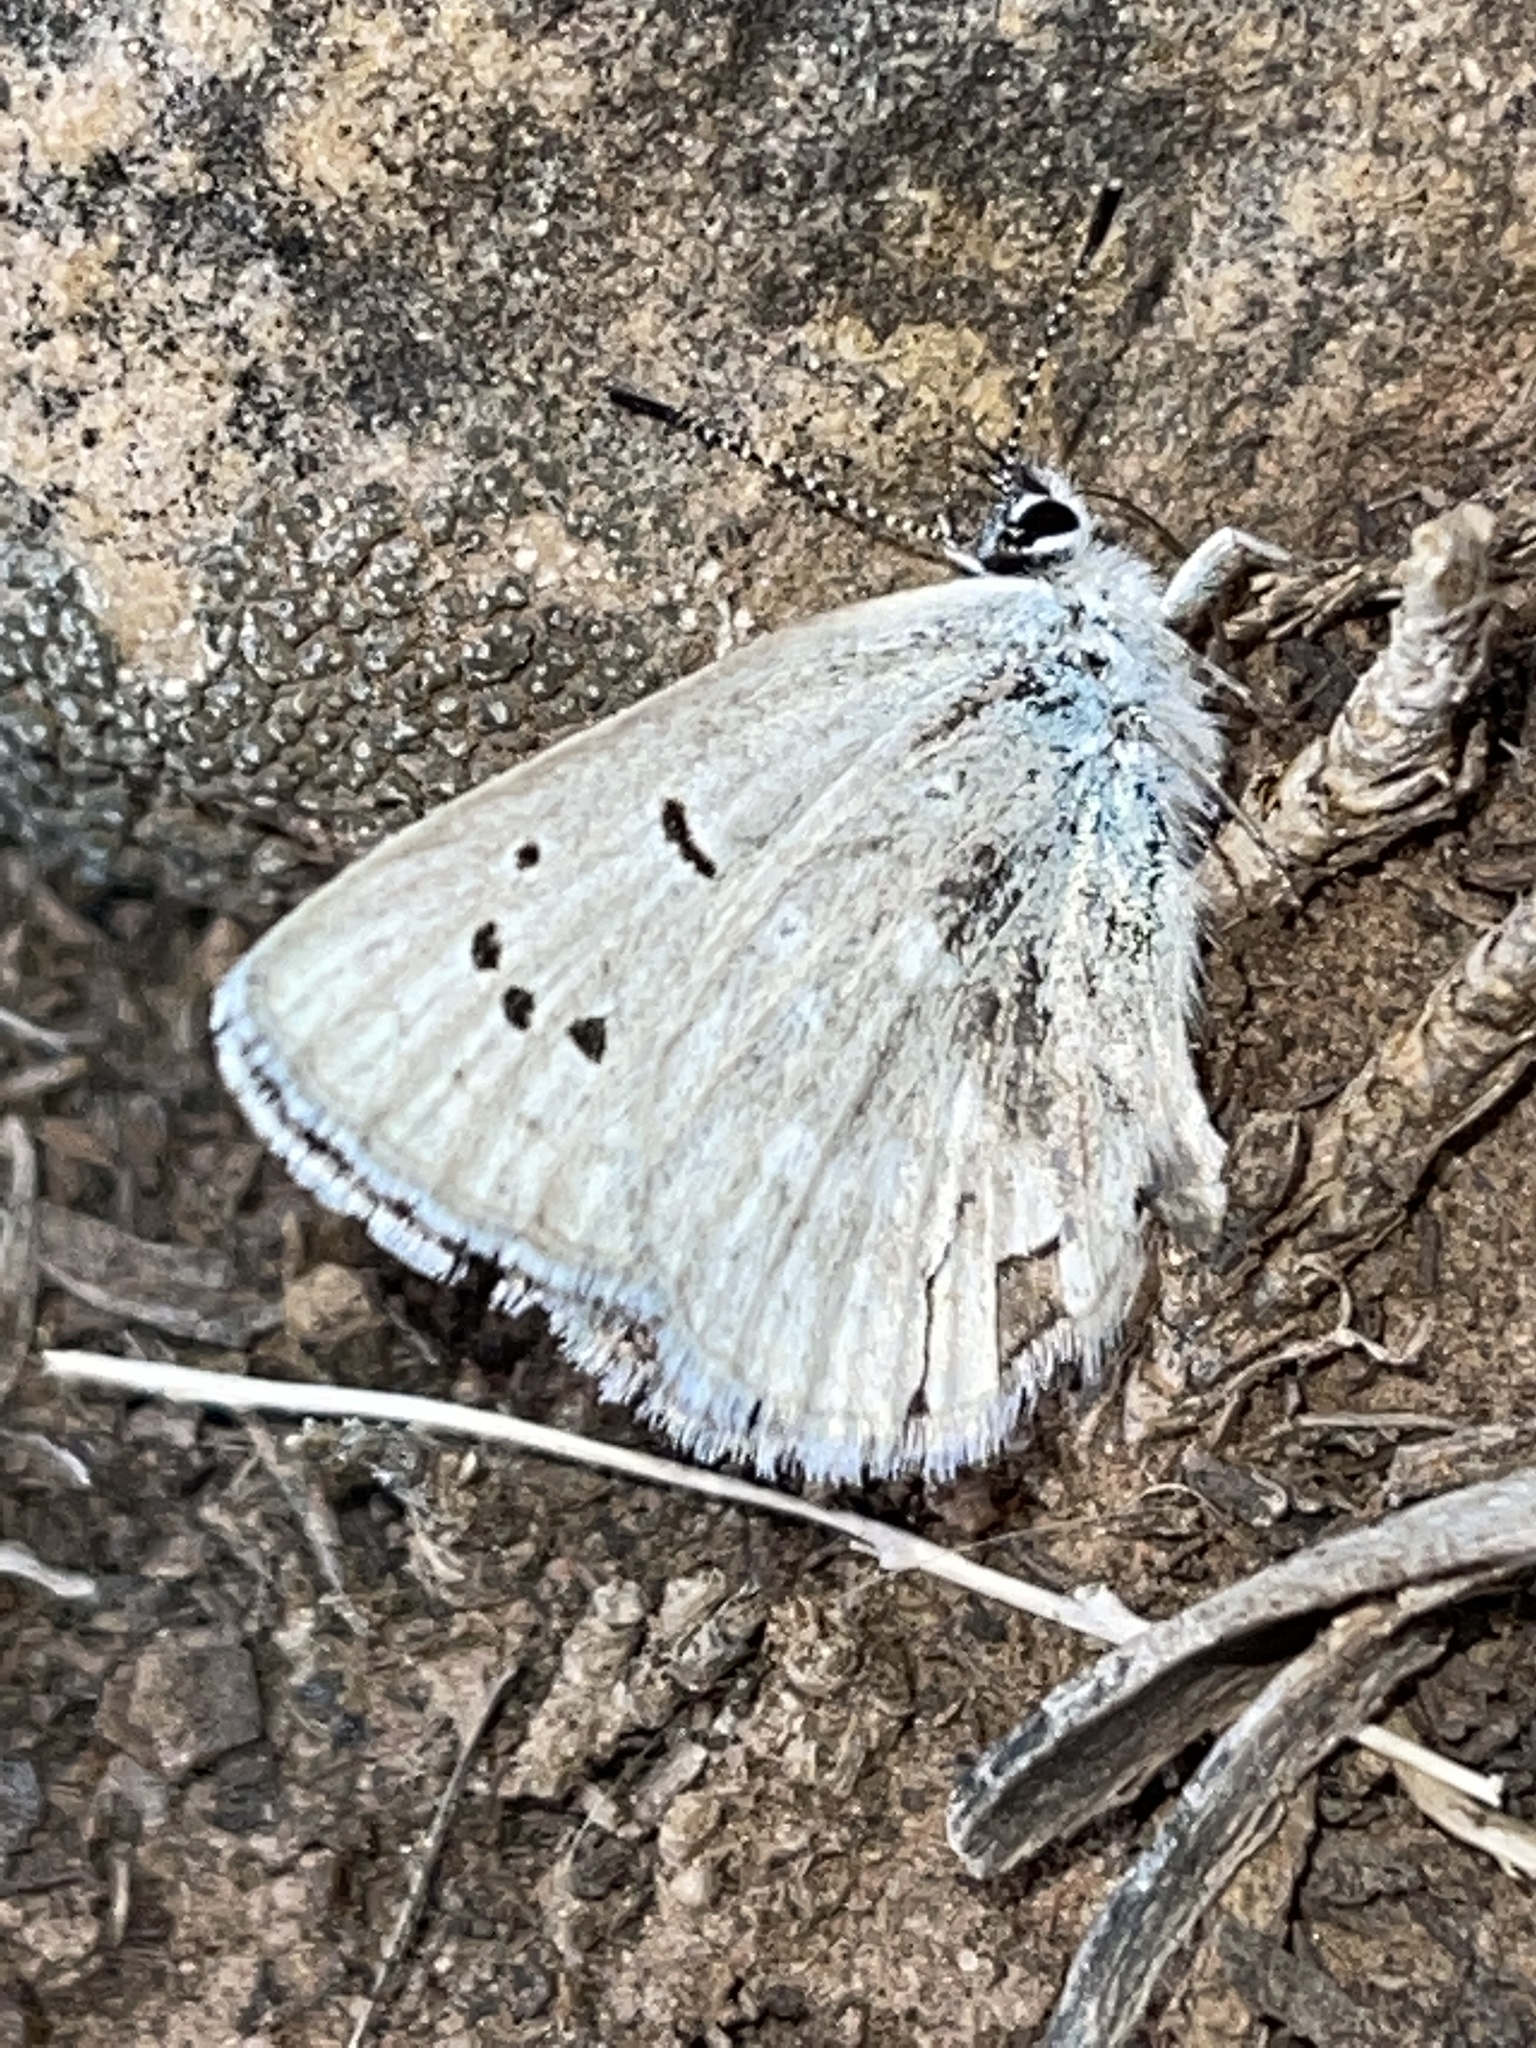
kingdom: Animalia
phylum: Arthropoda
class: Insecta
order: Lepidoptera
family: Lycaenidae
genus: Icaricia
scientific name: Icaricia icarioides
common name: Boisduval's blue
